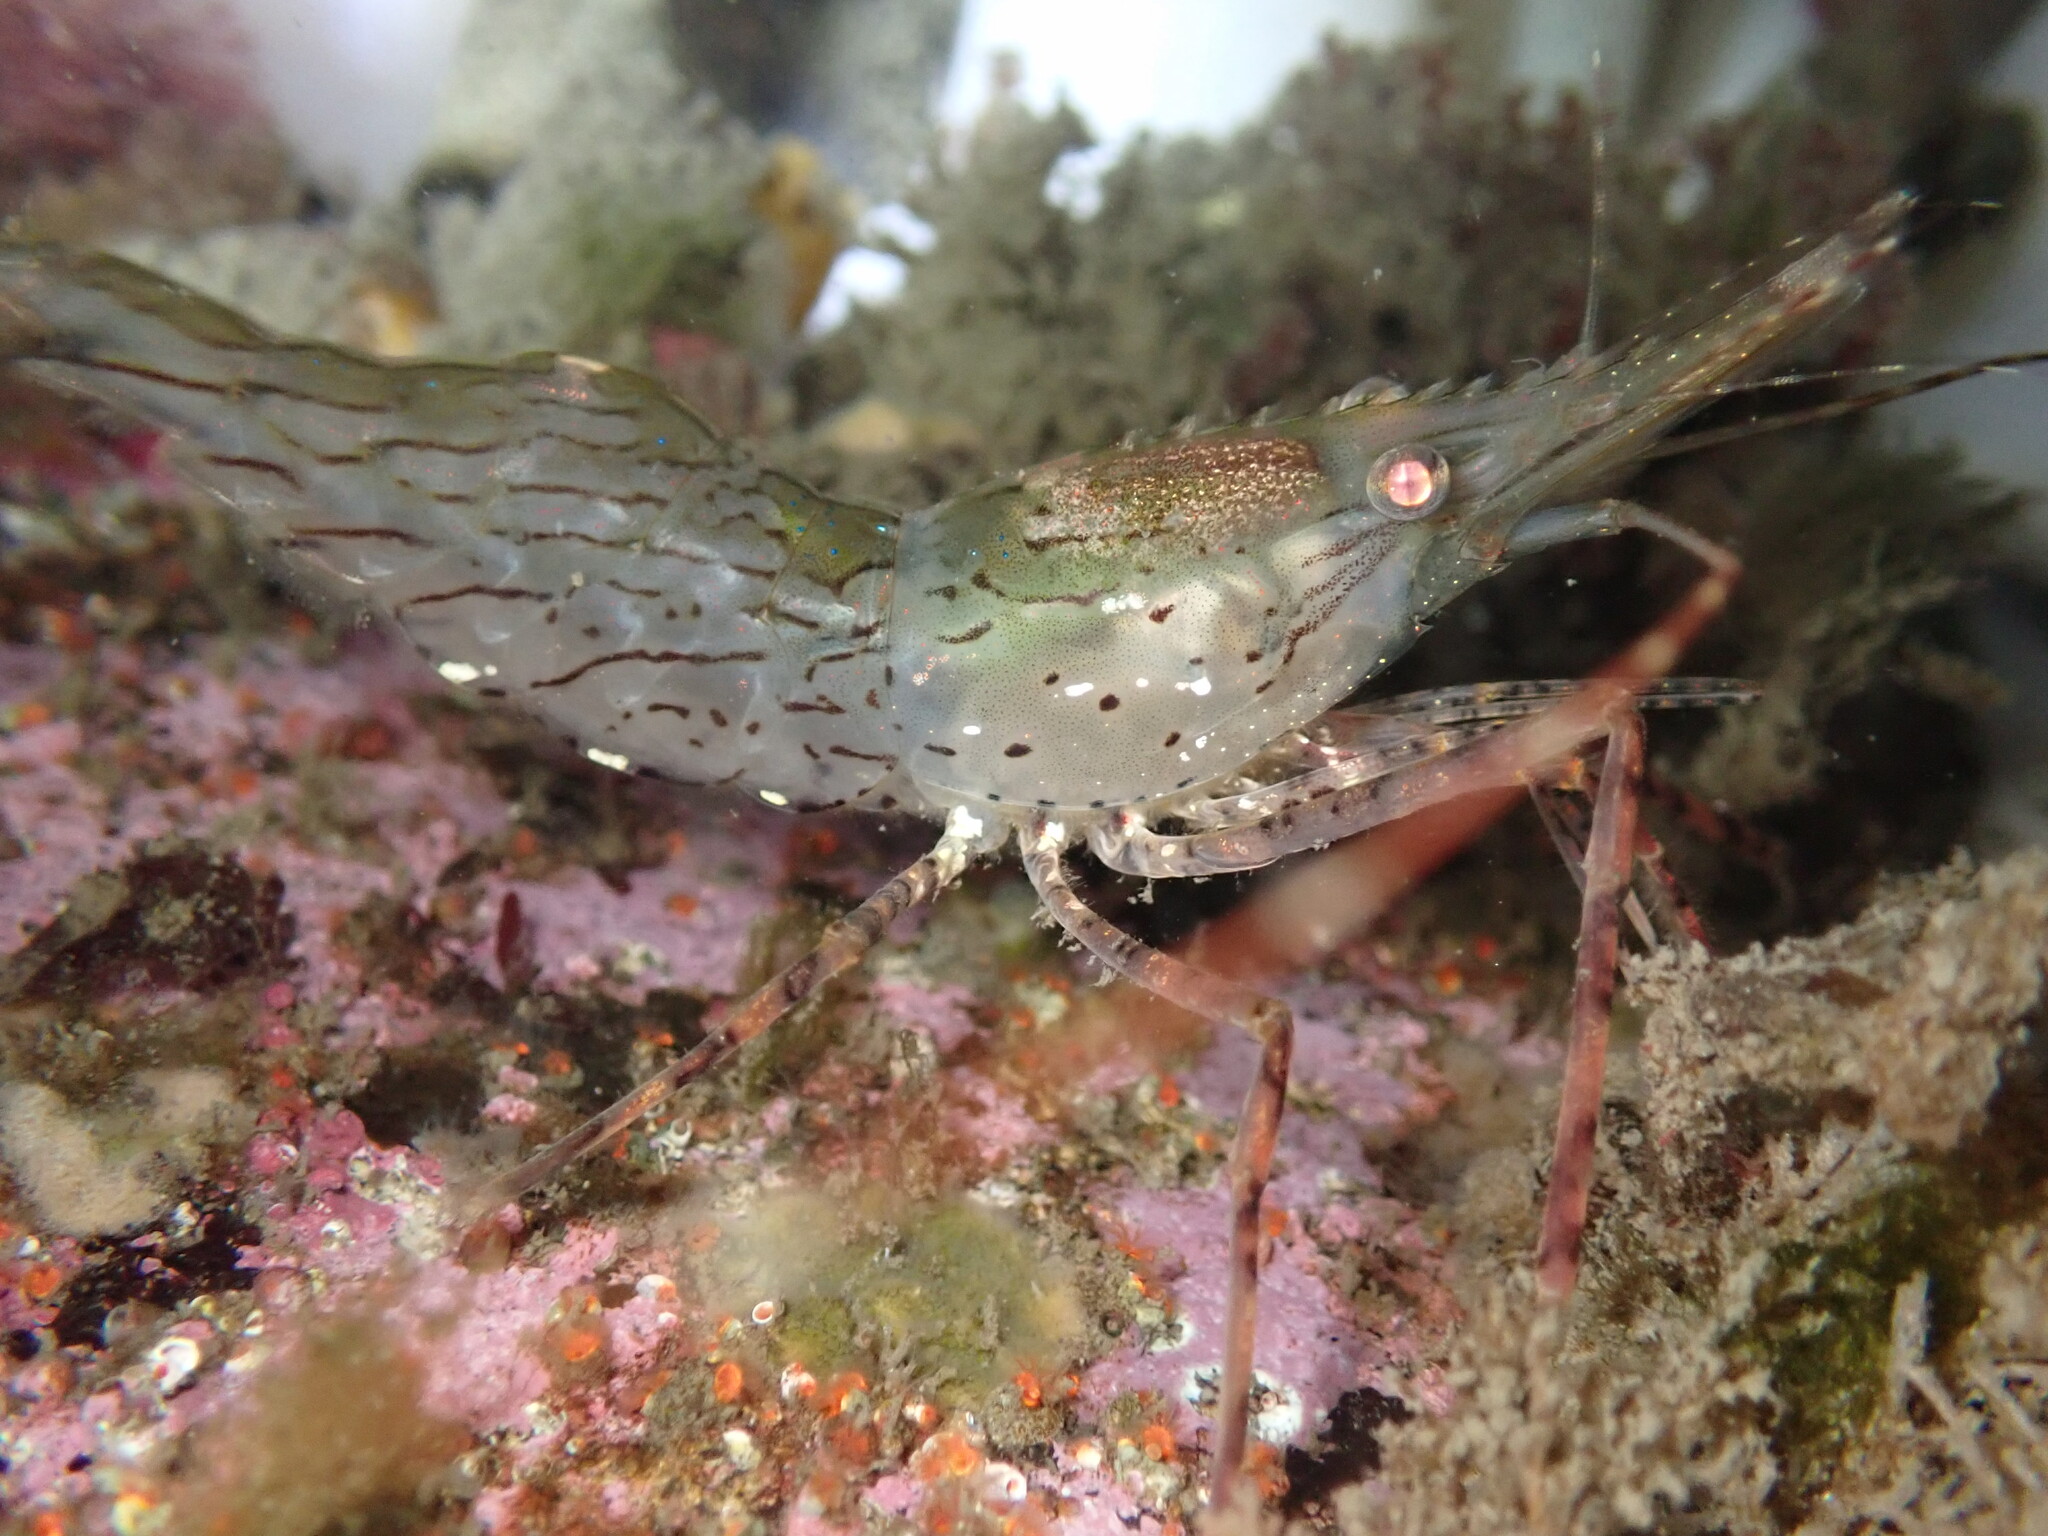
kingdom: Animalia
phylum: Arthropoda
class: Malacostraca
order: Decapoda
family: Pandalidae
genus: Pandalus
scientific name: Pandalus danae
